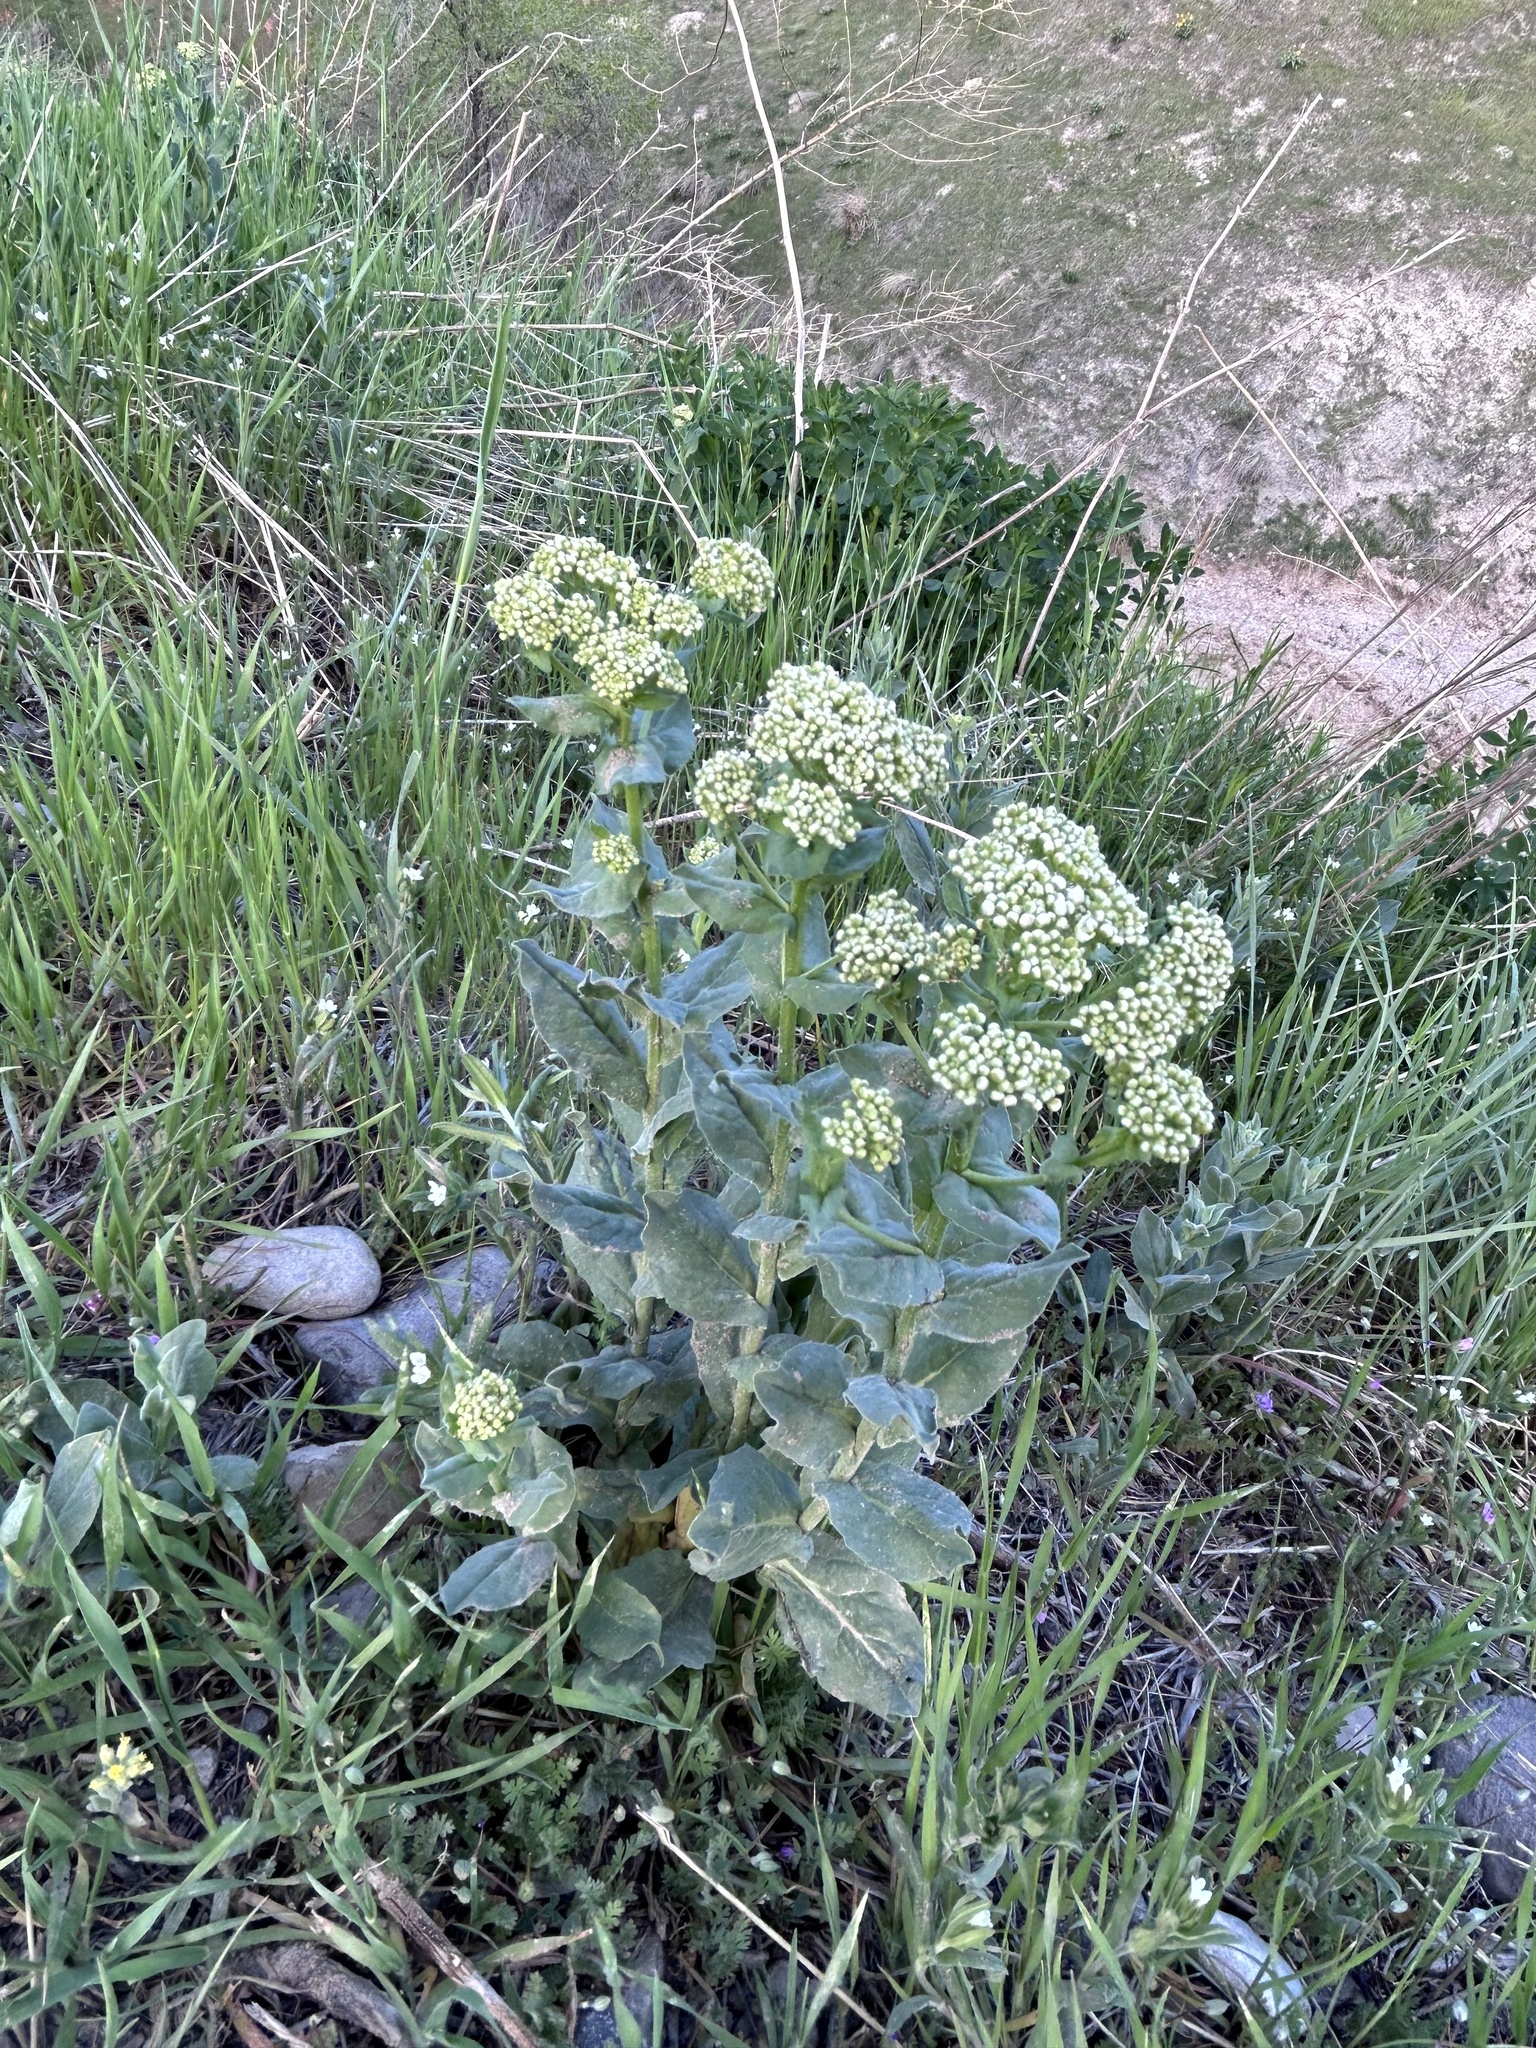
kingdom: Plantae
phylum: Tracheophyta
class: Magnoliopsida
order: Brassicales
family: Brassicaceae
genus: Lepidium
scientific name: Lepidium draba
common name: Hoary cress
